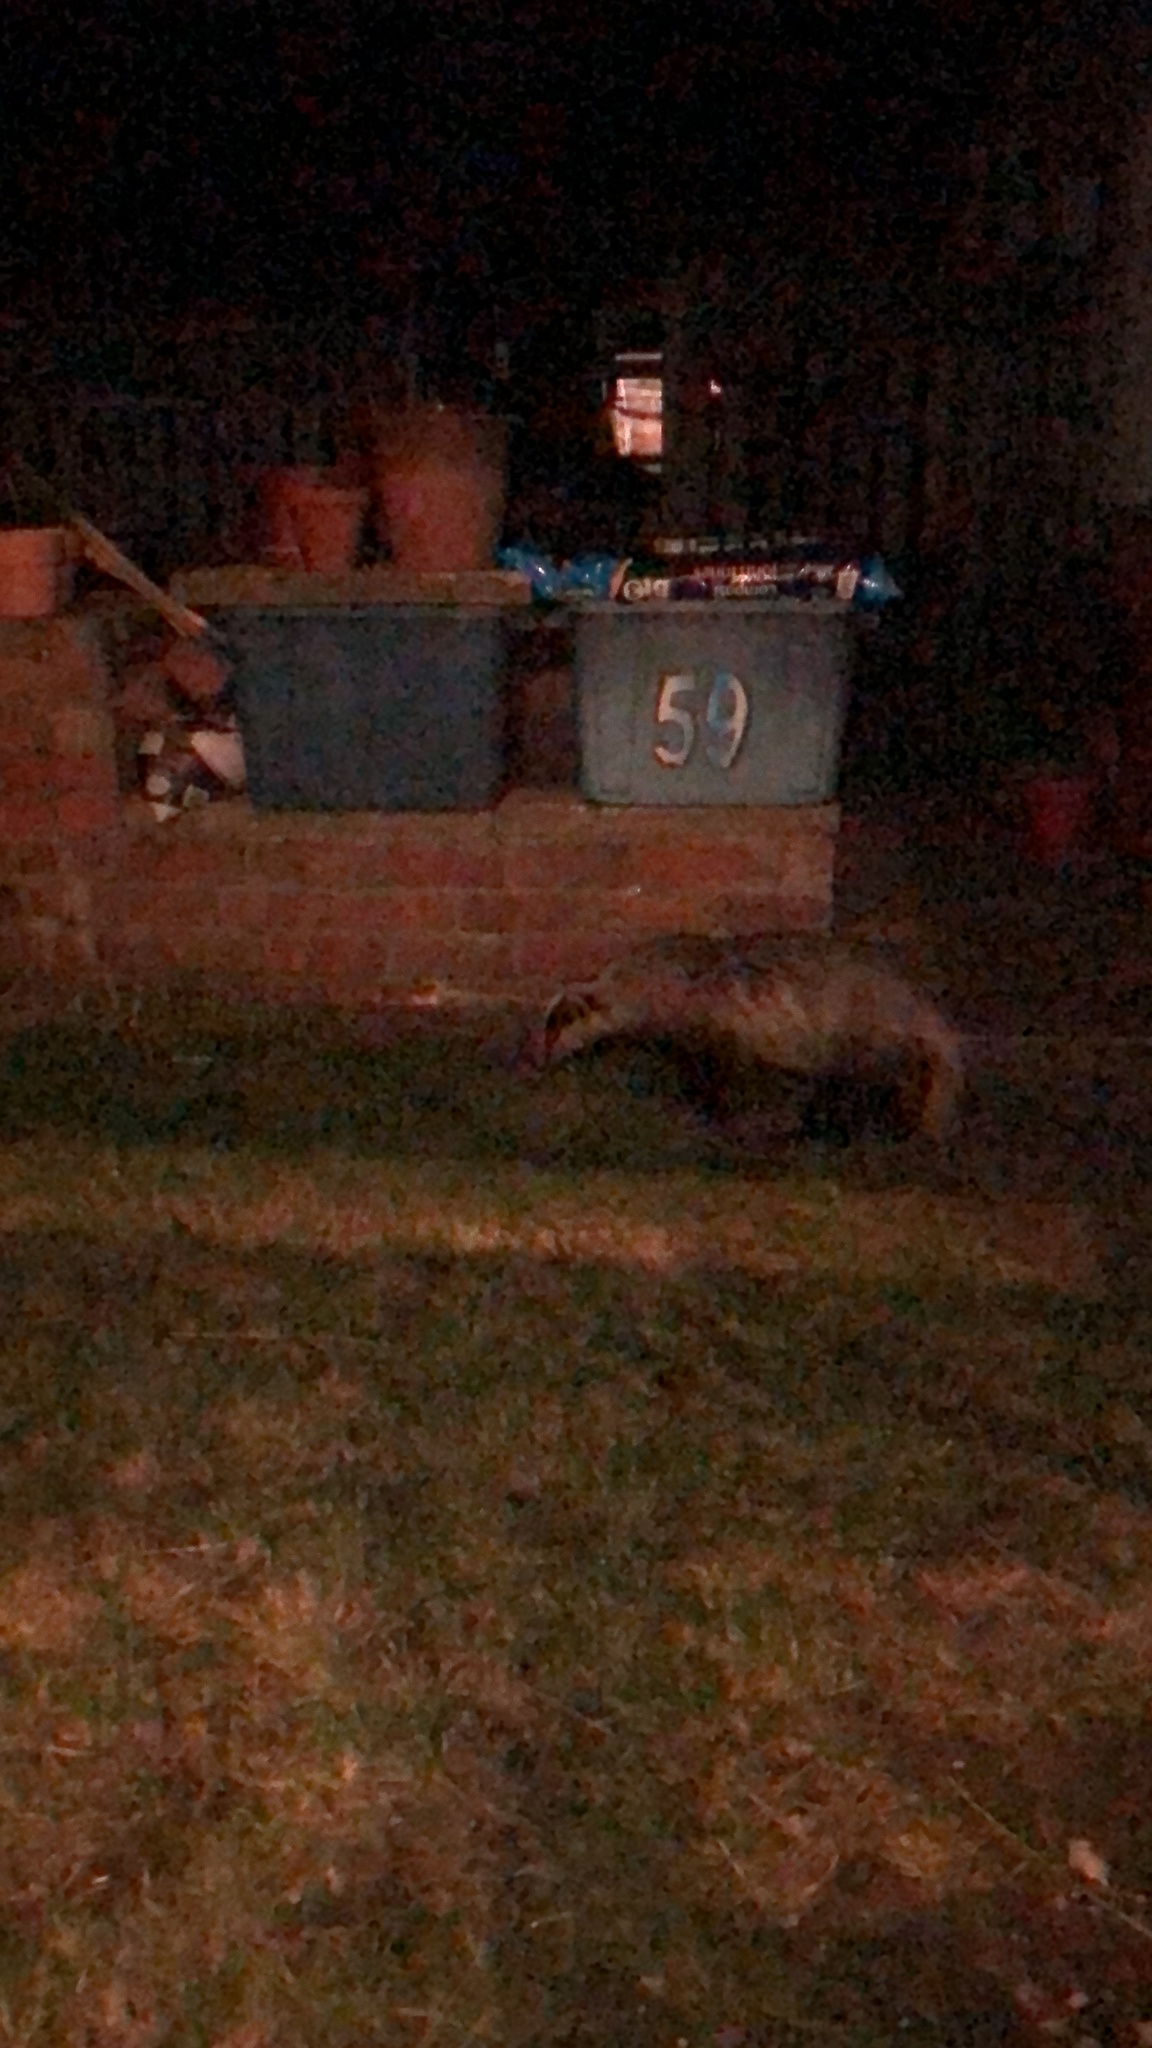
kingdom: Animalia
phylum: Chordata
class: Mammalia
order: Carnivora
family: Mustelidae
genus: Meles
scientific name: Meles meles
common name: Eurasian badger
